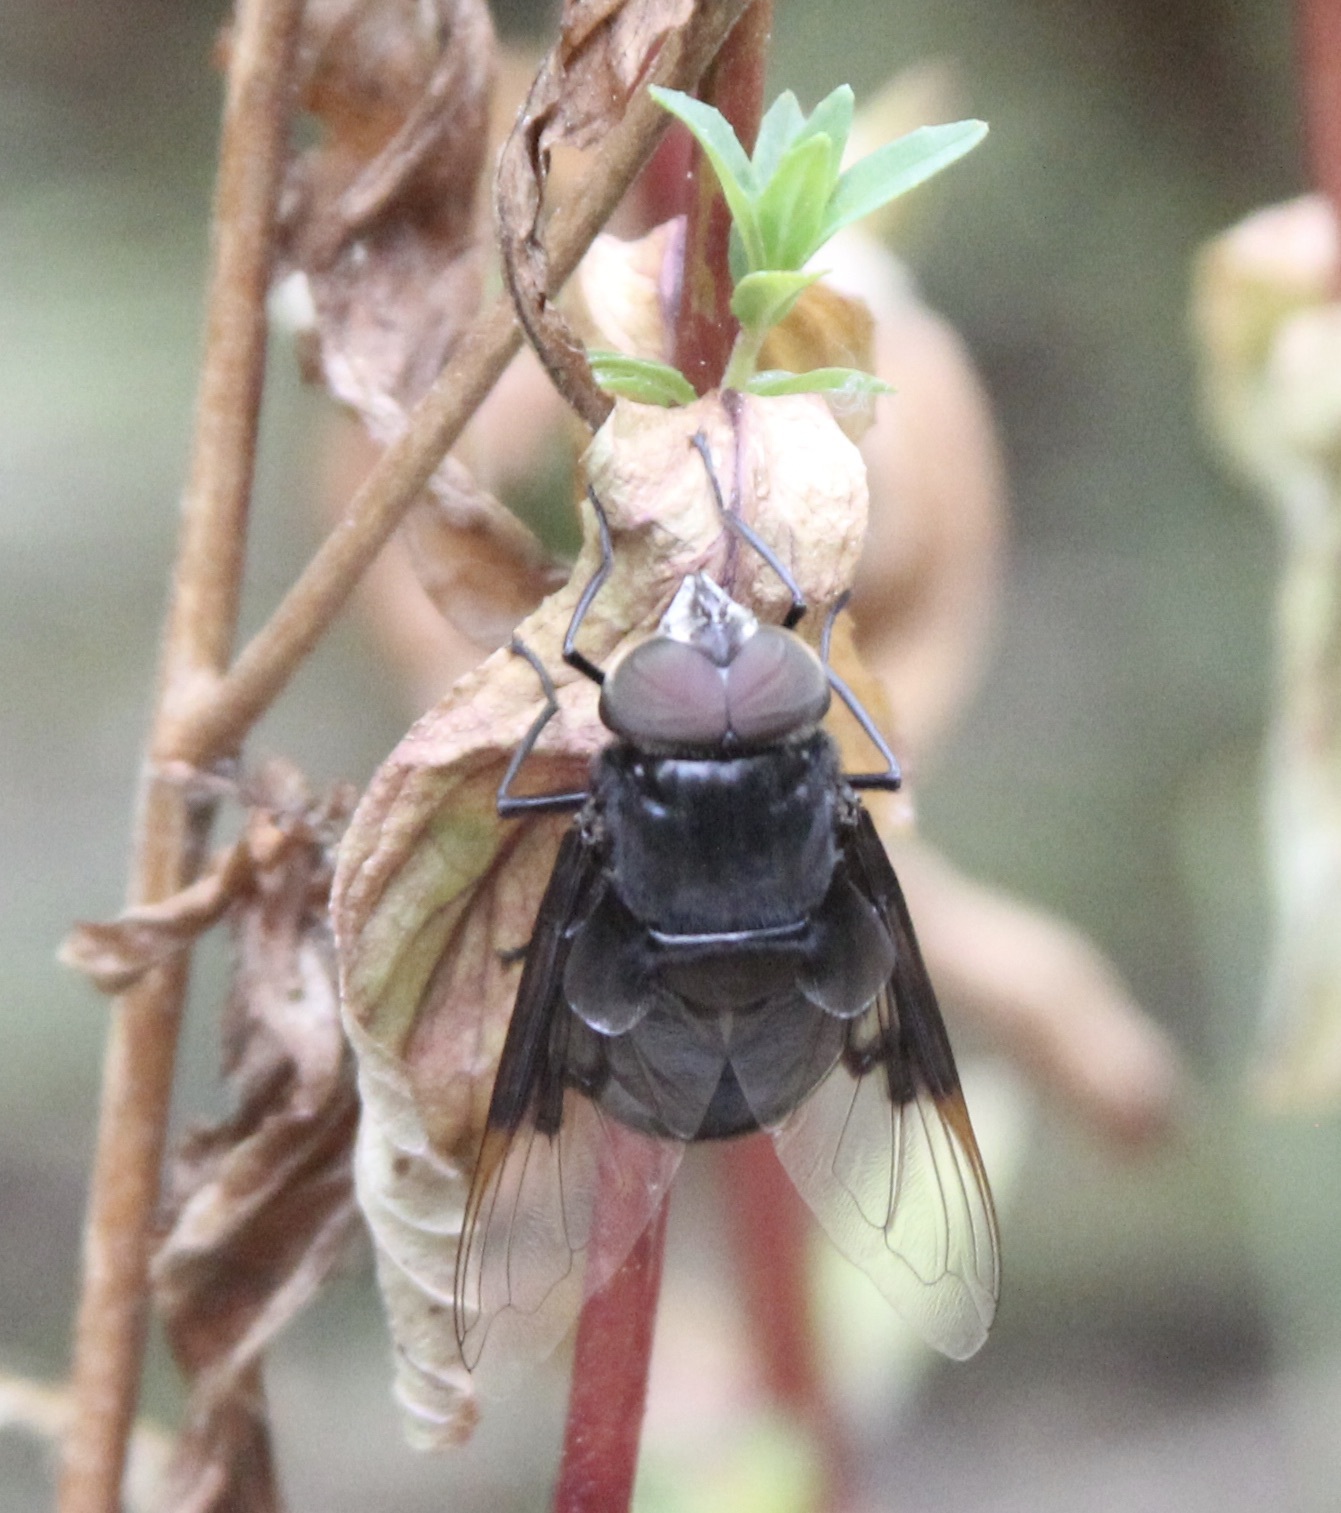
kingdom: Animalia
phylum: Arthropoda
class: Insecta
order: Diptera
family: Syrphidae
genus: Copestylum
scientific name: Copestylum mexicanum
